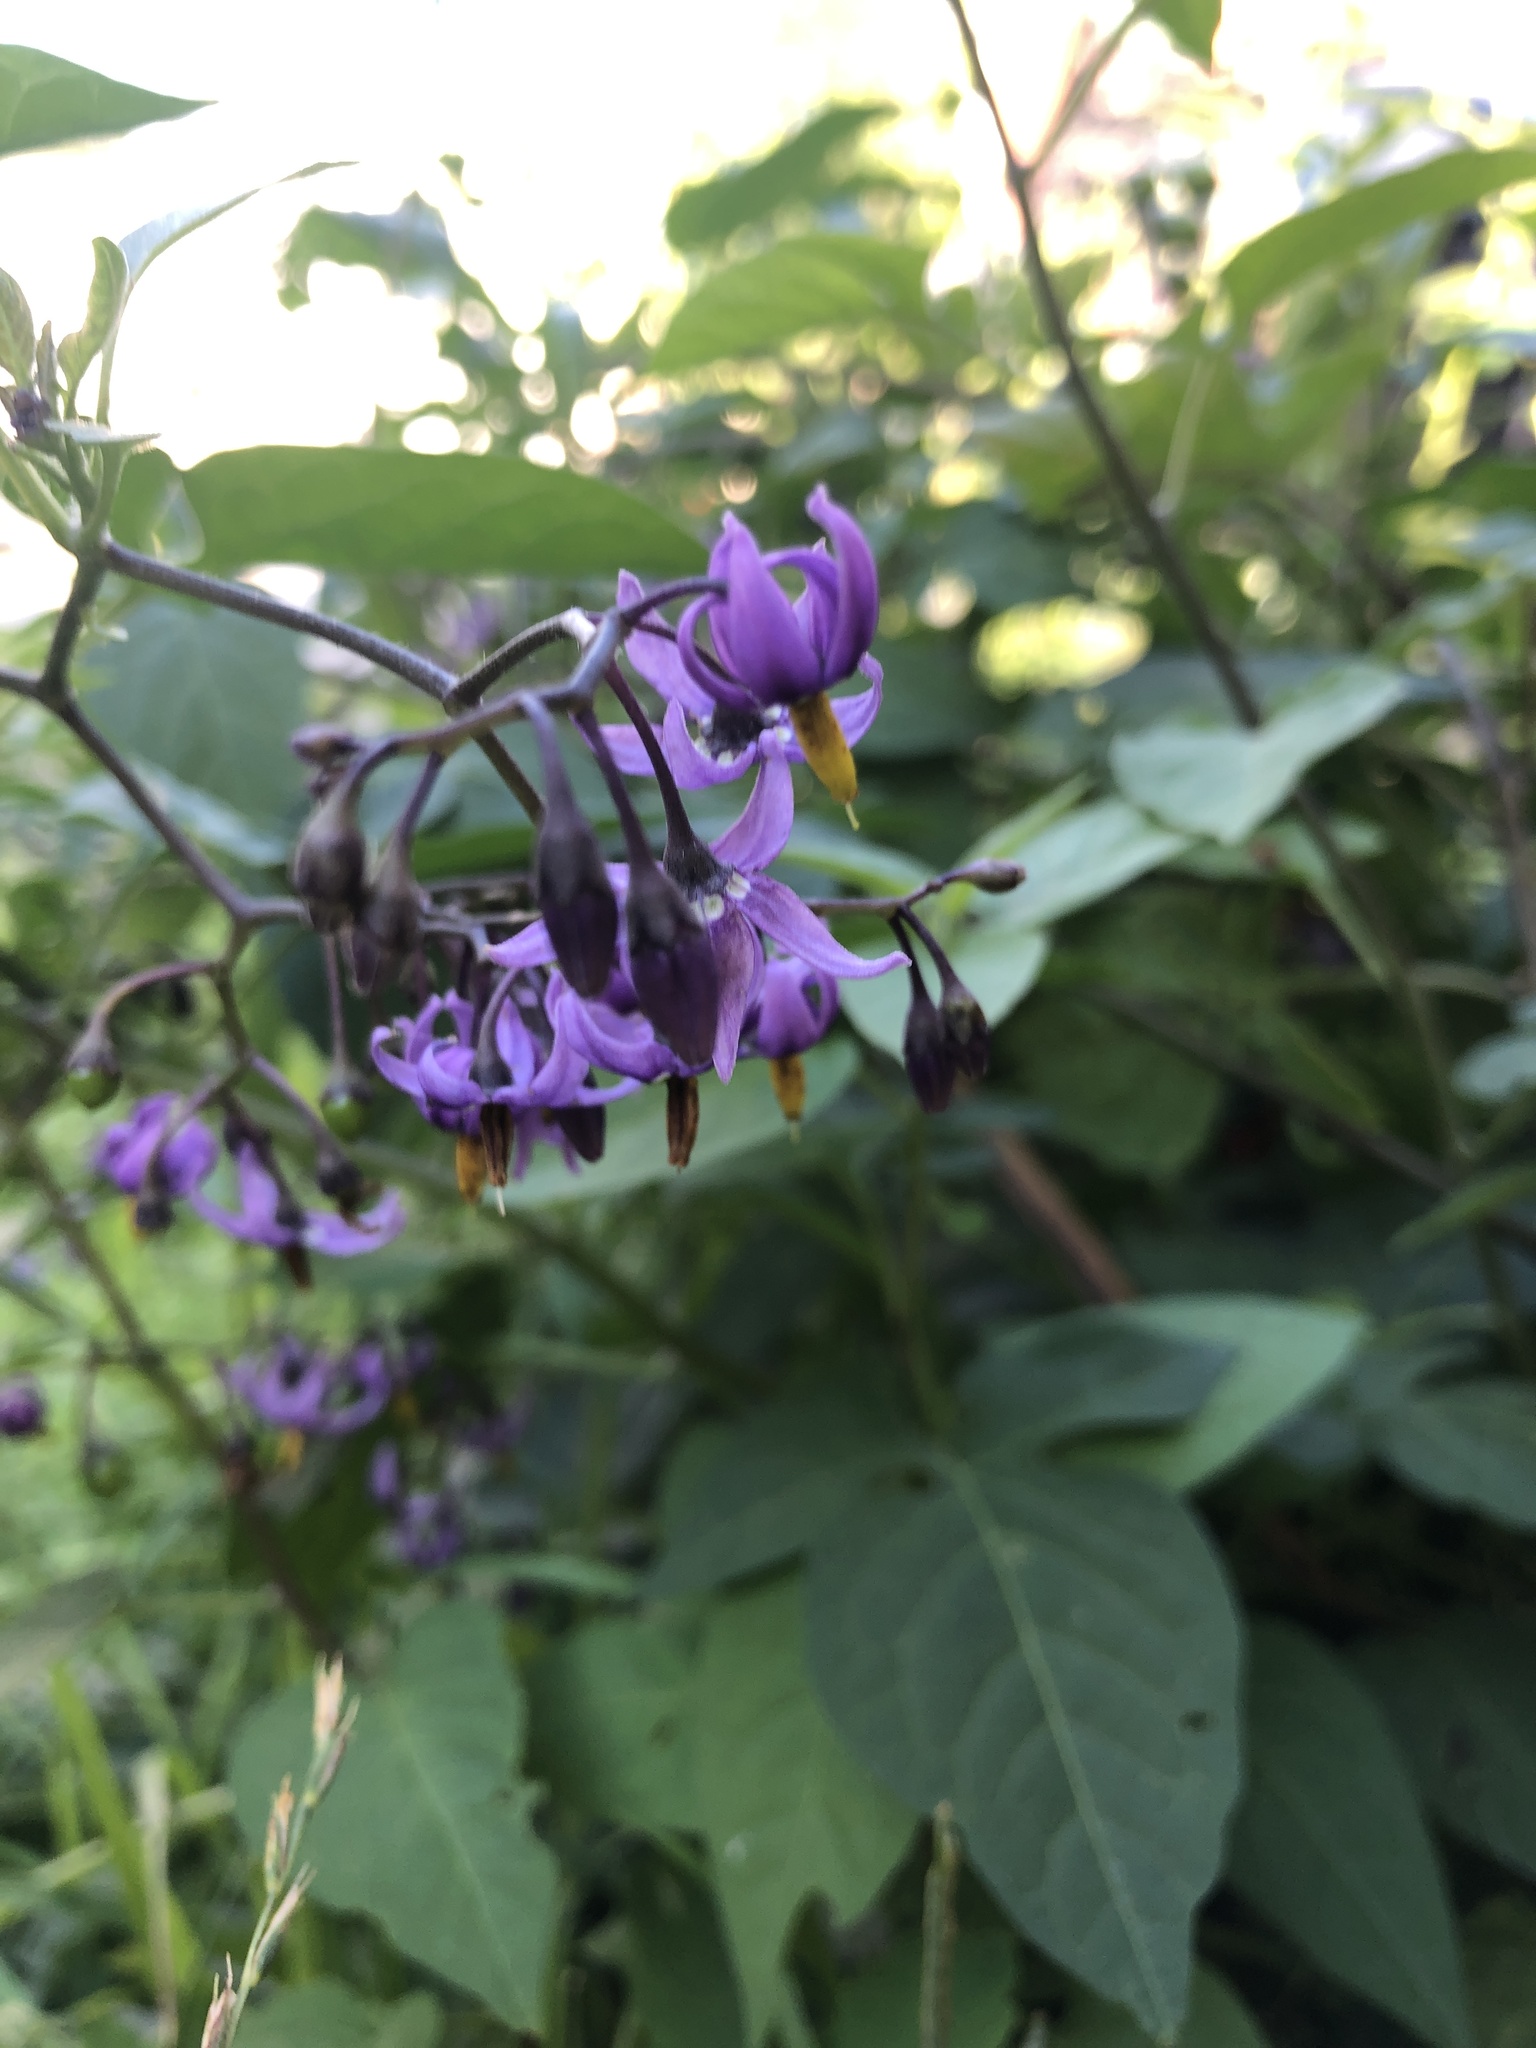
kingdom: Plantae
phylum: Tracheophyta
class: Magnoliopsida
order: Solanales
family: Solanaceae
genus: Solanum
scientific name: Solanum dulcamara
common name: Climbing nightshade
